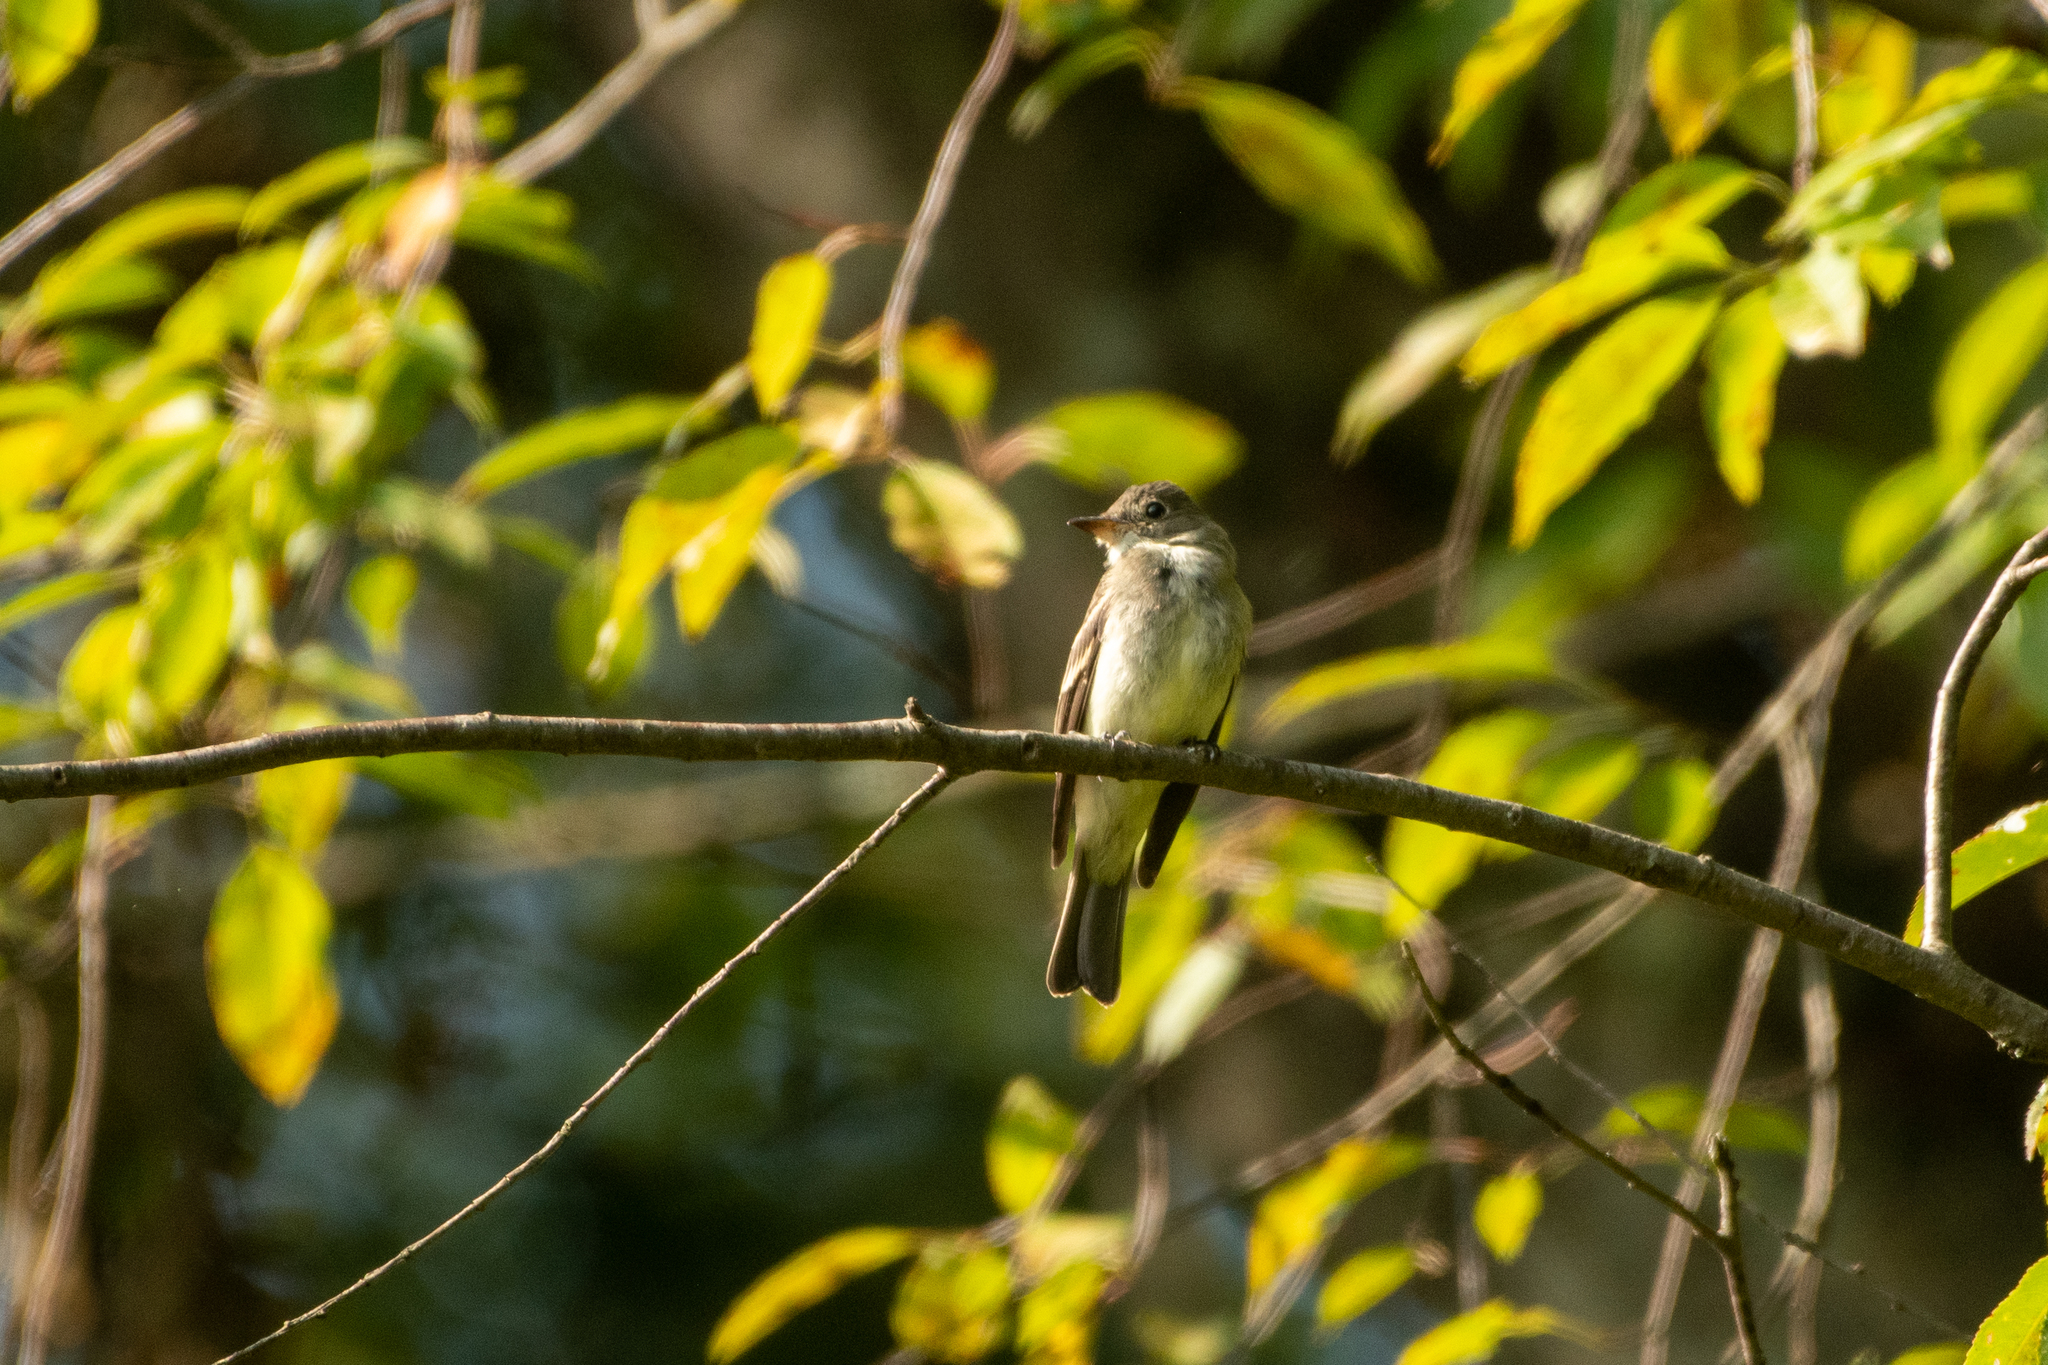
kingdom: Animalia
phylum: Chordata
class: Aves
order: Passeriformes
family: Tyrannidae
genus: Contopus
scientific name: Contopus virens
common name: Eastern wood-pewee
